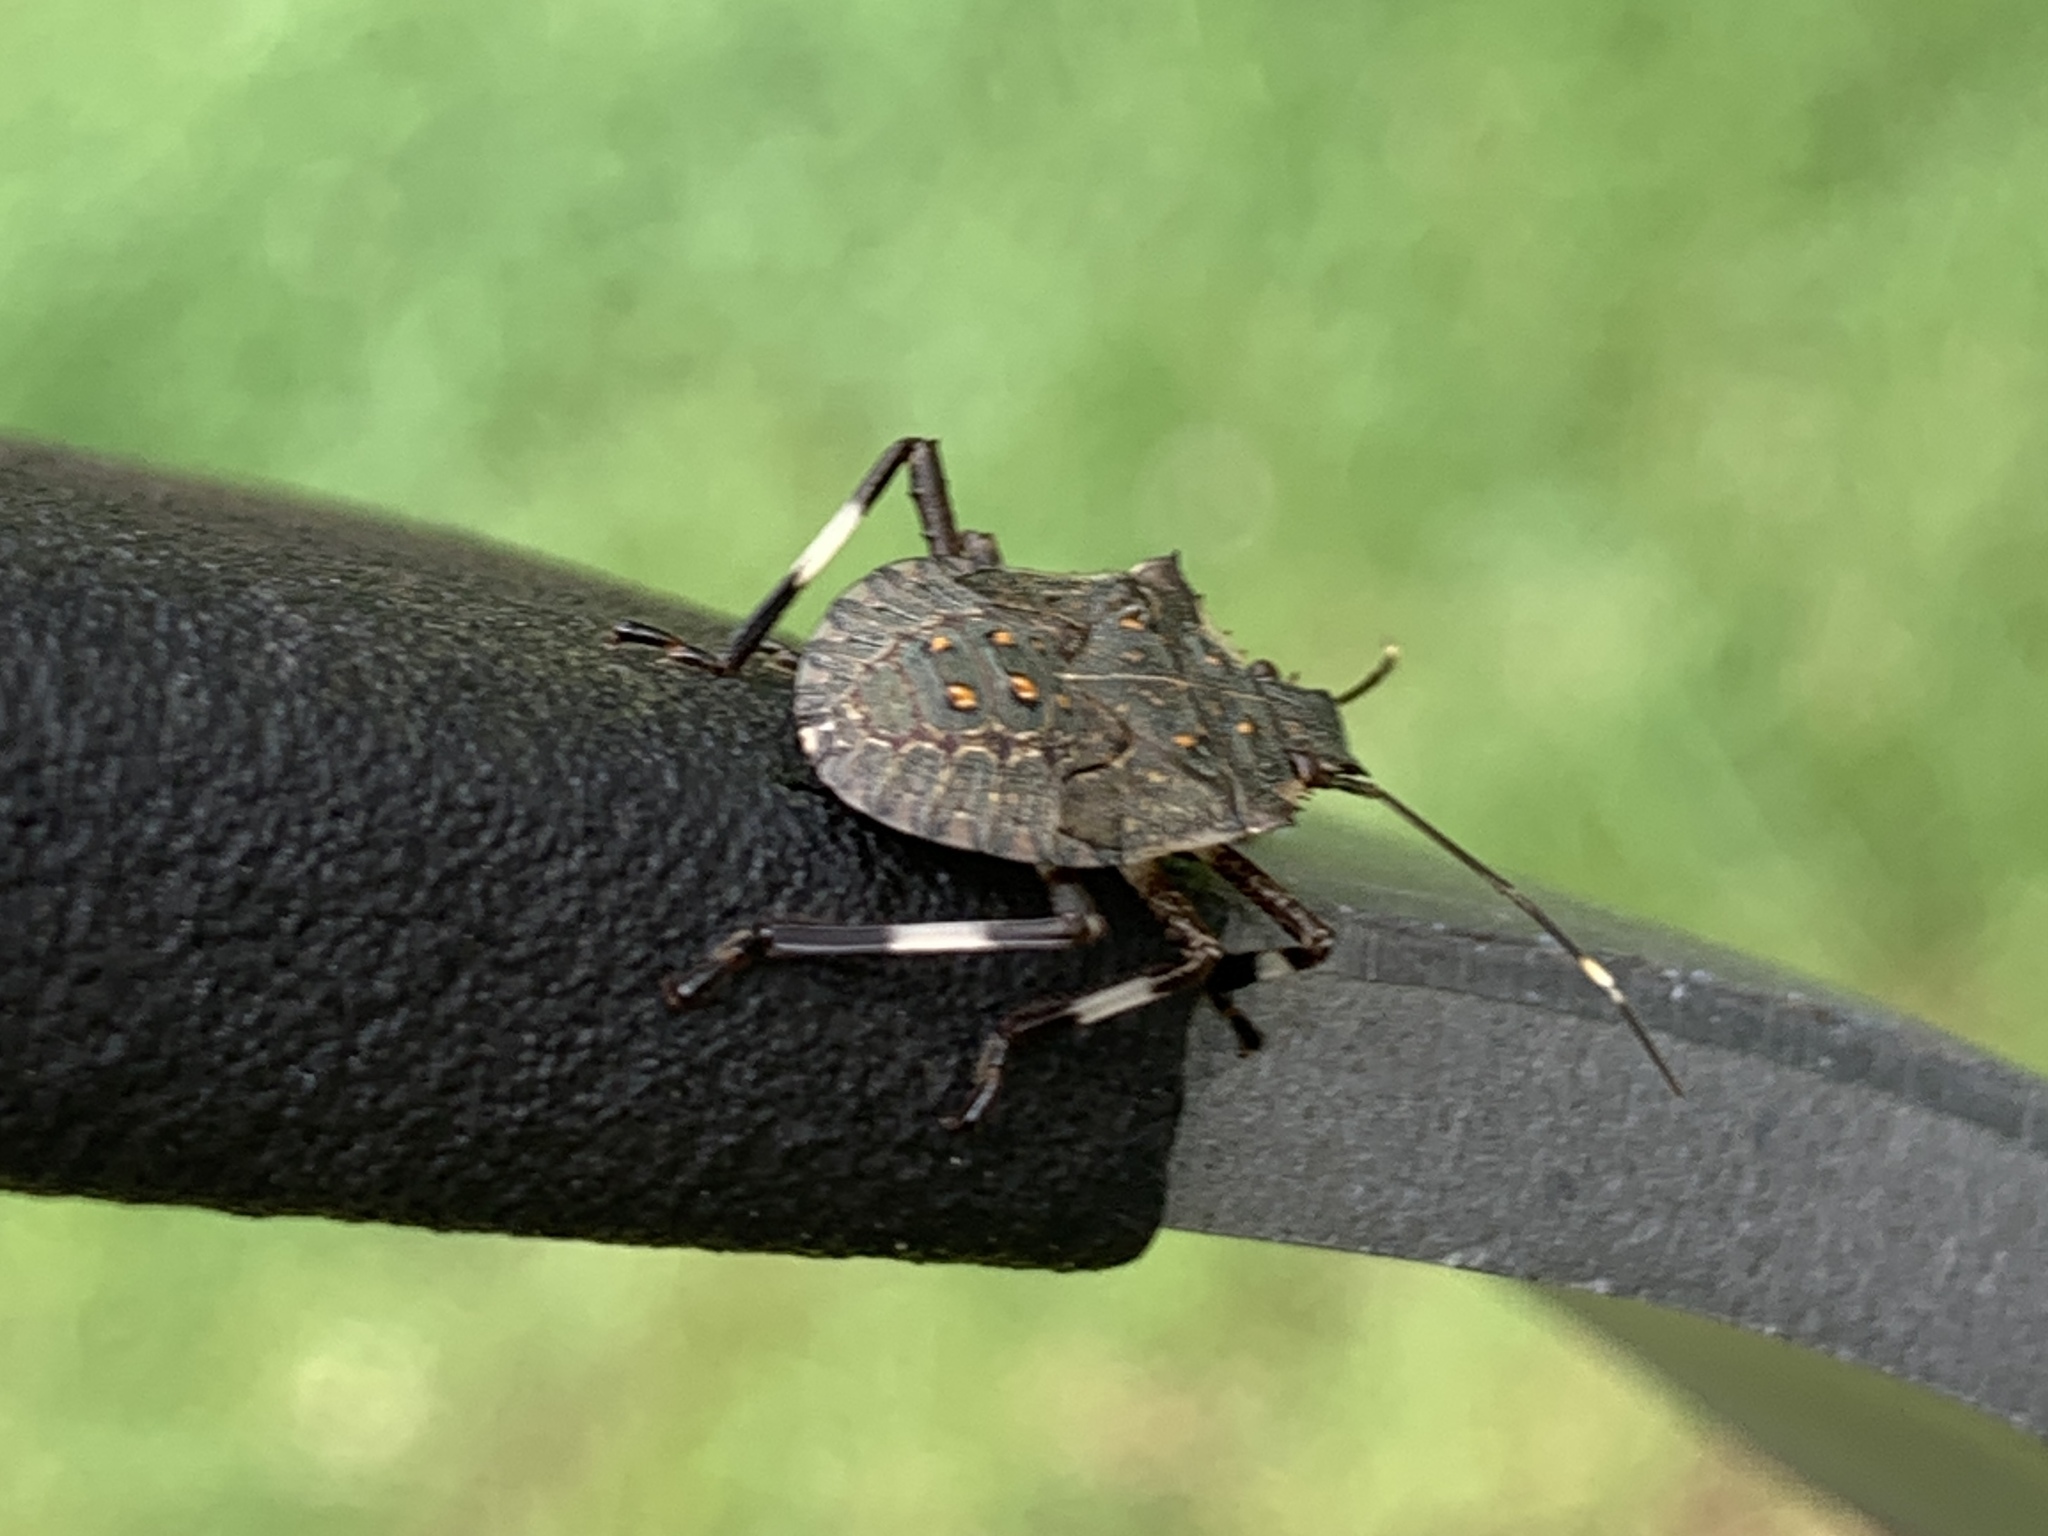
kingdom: Animalia
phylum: Arthropoda
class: Insecta
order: Hemiptera
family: Pentatomidae
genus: Halyomorpha
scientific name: Halyomorpha halys
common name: Brown marmorated stink bug
